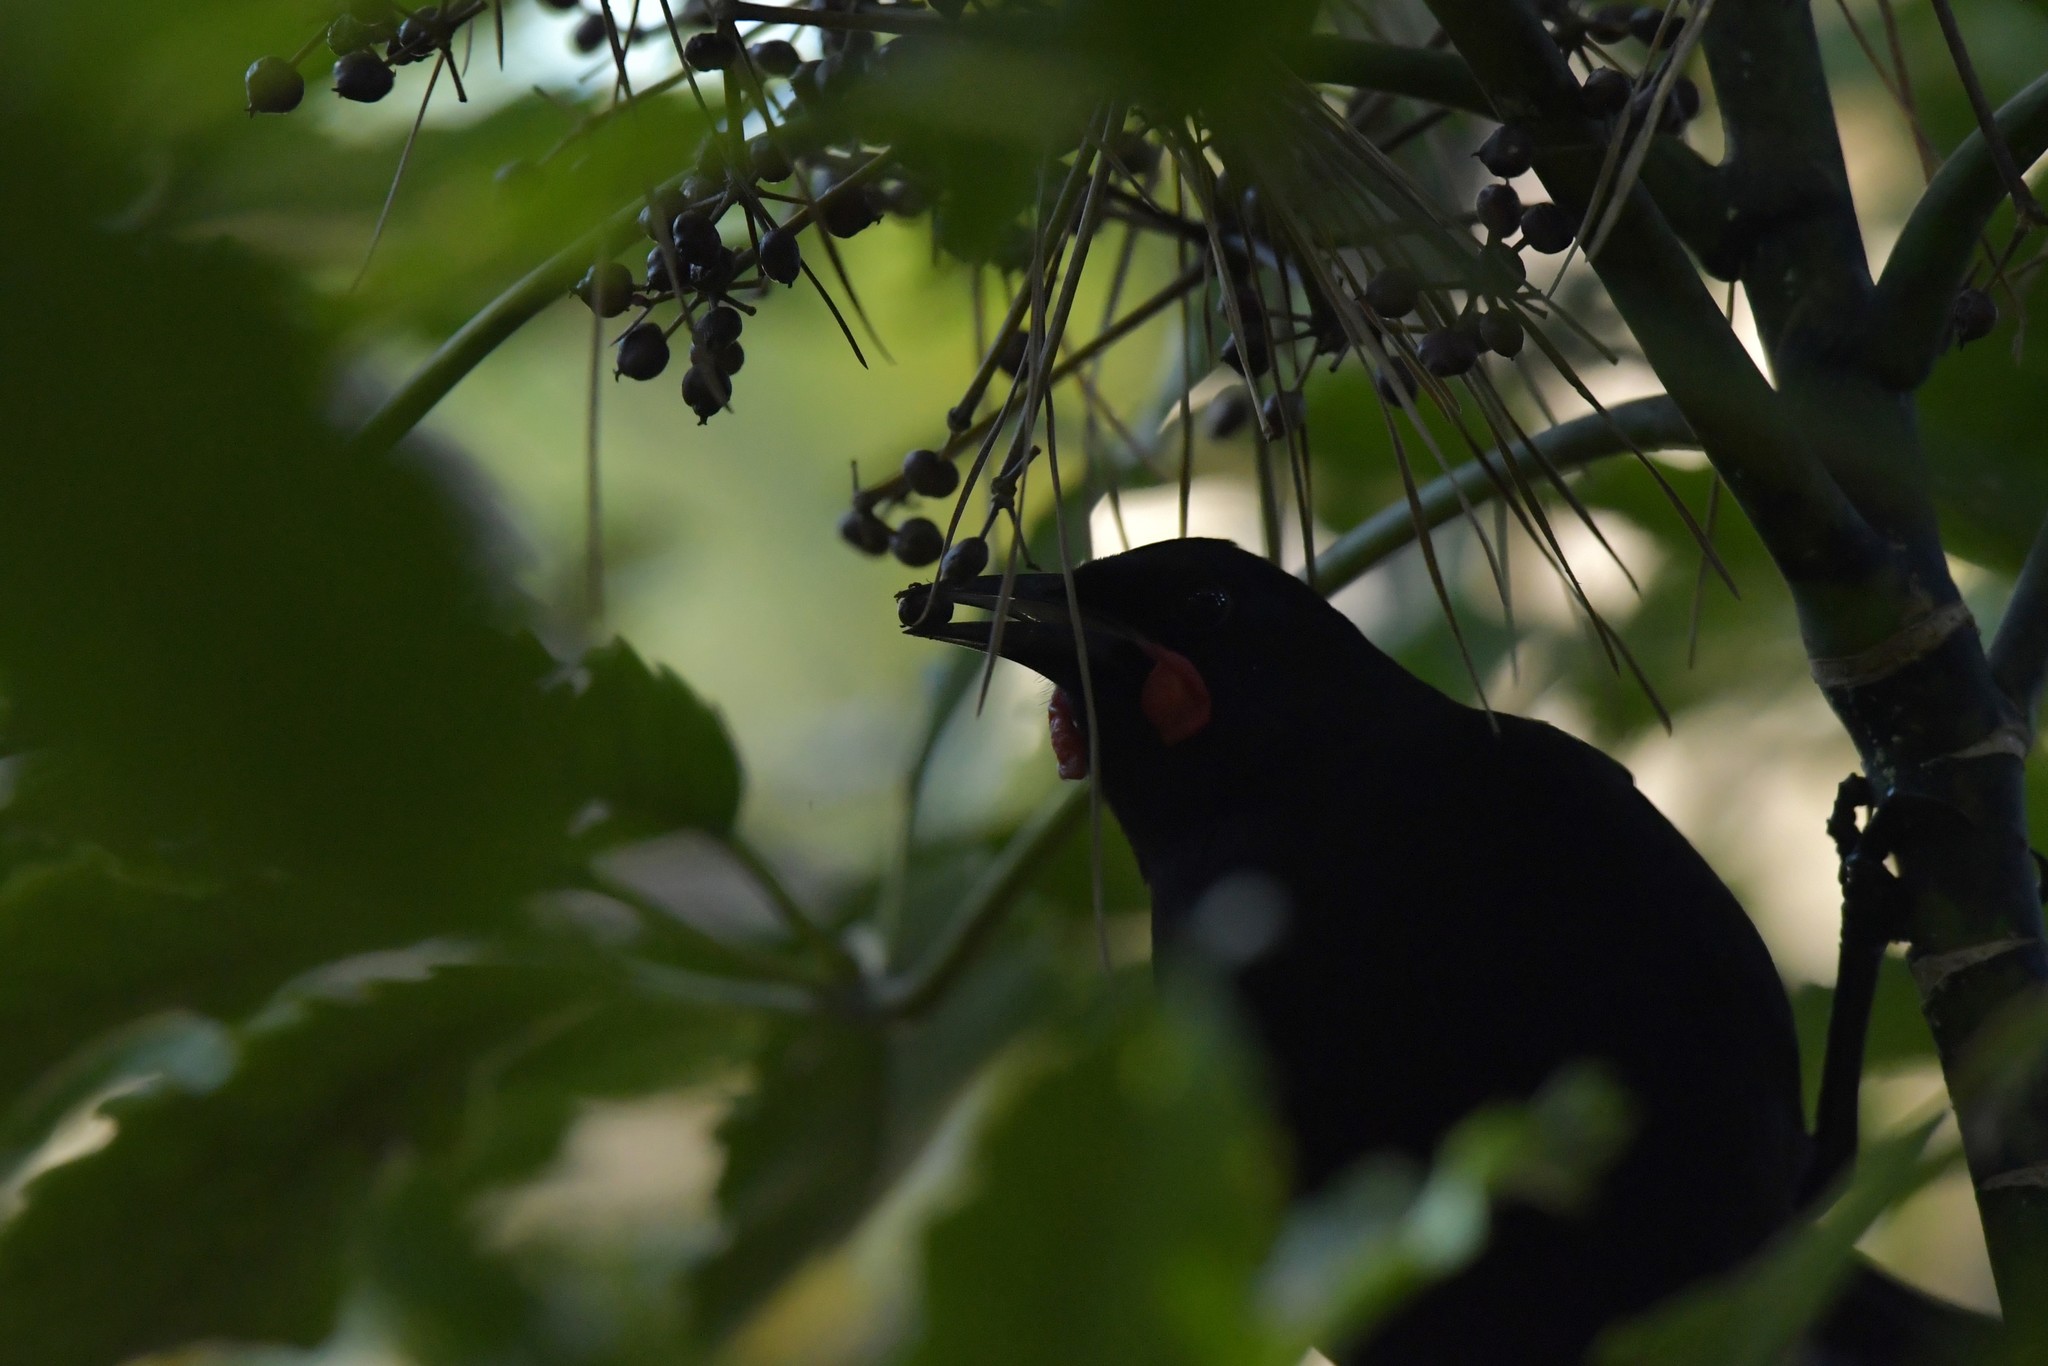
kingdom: Animalia
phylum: Chordata
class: Aves
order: Passeriformes
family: Callaeatidae
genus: Philesturnus
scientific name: Philesturnus carunculatus
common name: South island saddleback
